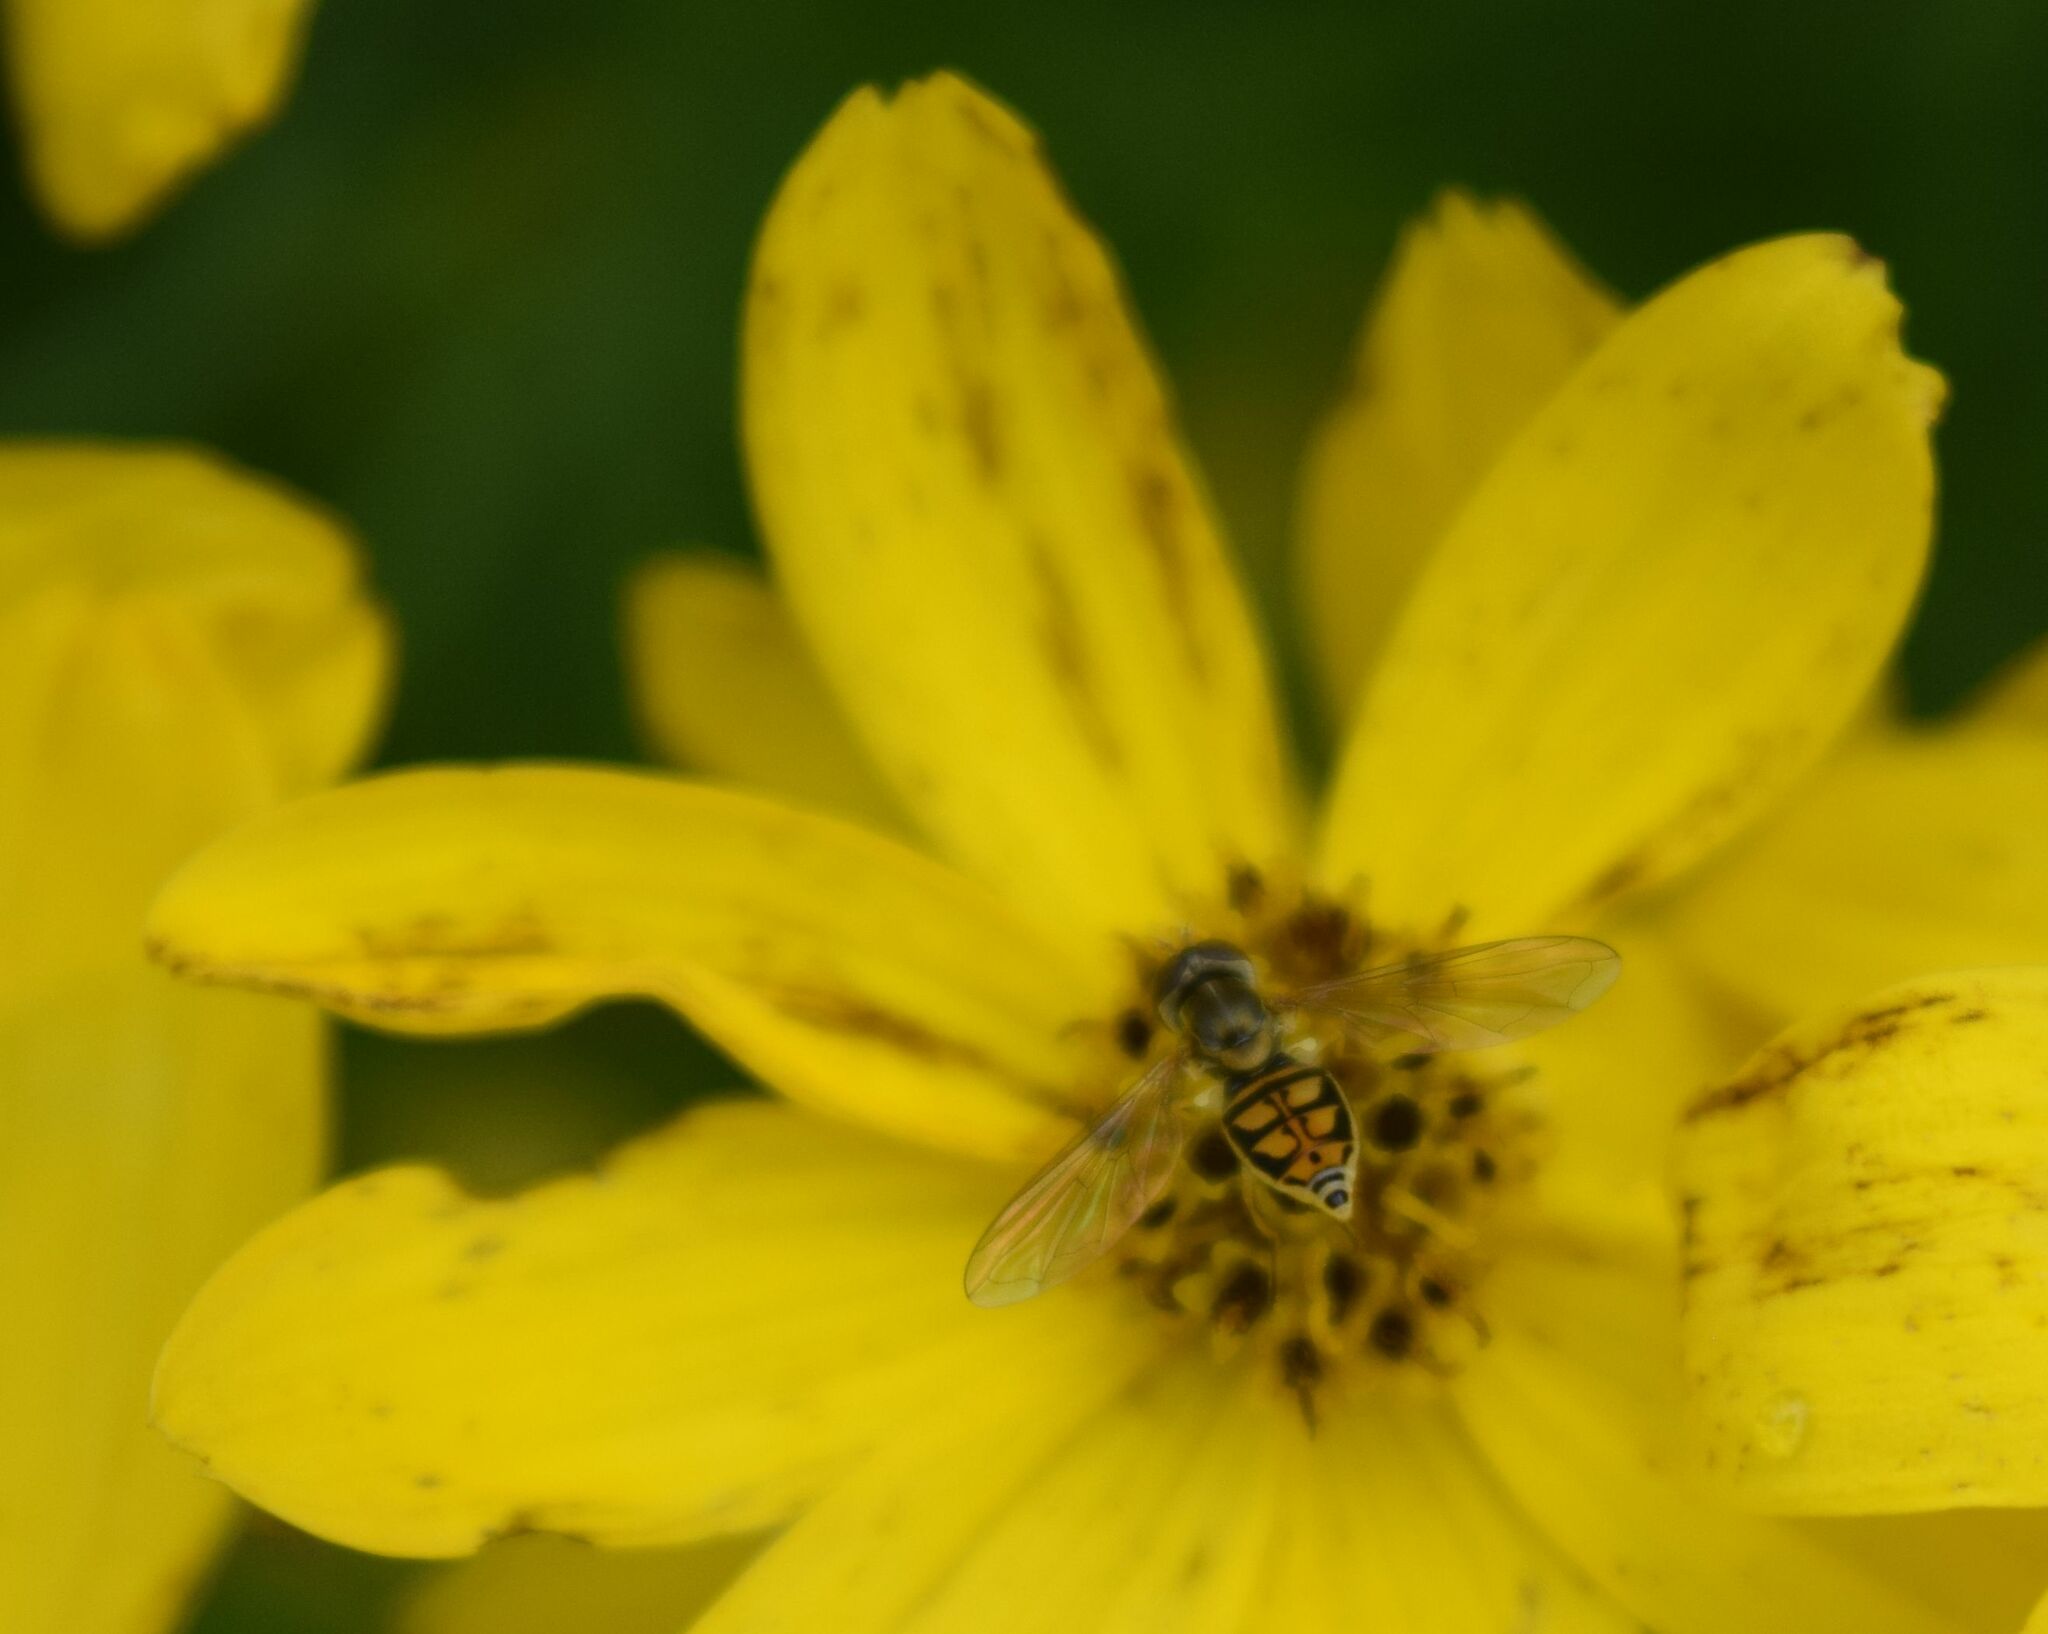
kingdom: Animalia
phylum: Arthropoda
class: Insecta
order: Diptera
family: Syrphidae
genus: Toxomerus
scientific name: Toxomerus marginatus
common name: Syrphid fly
